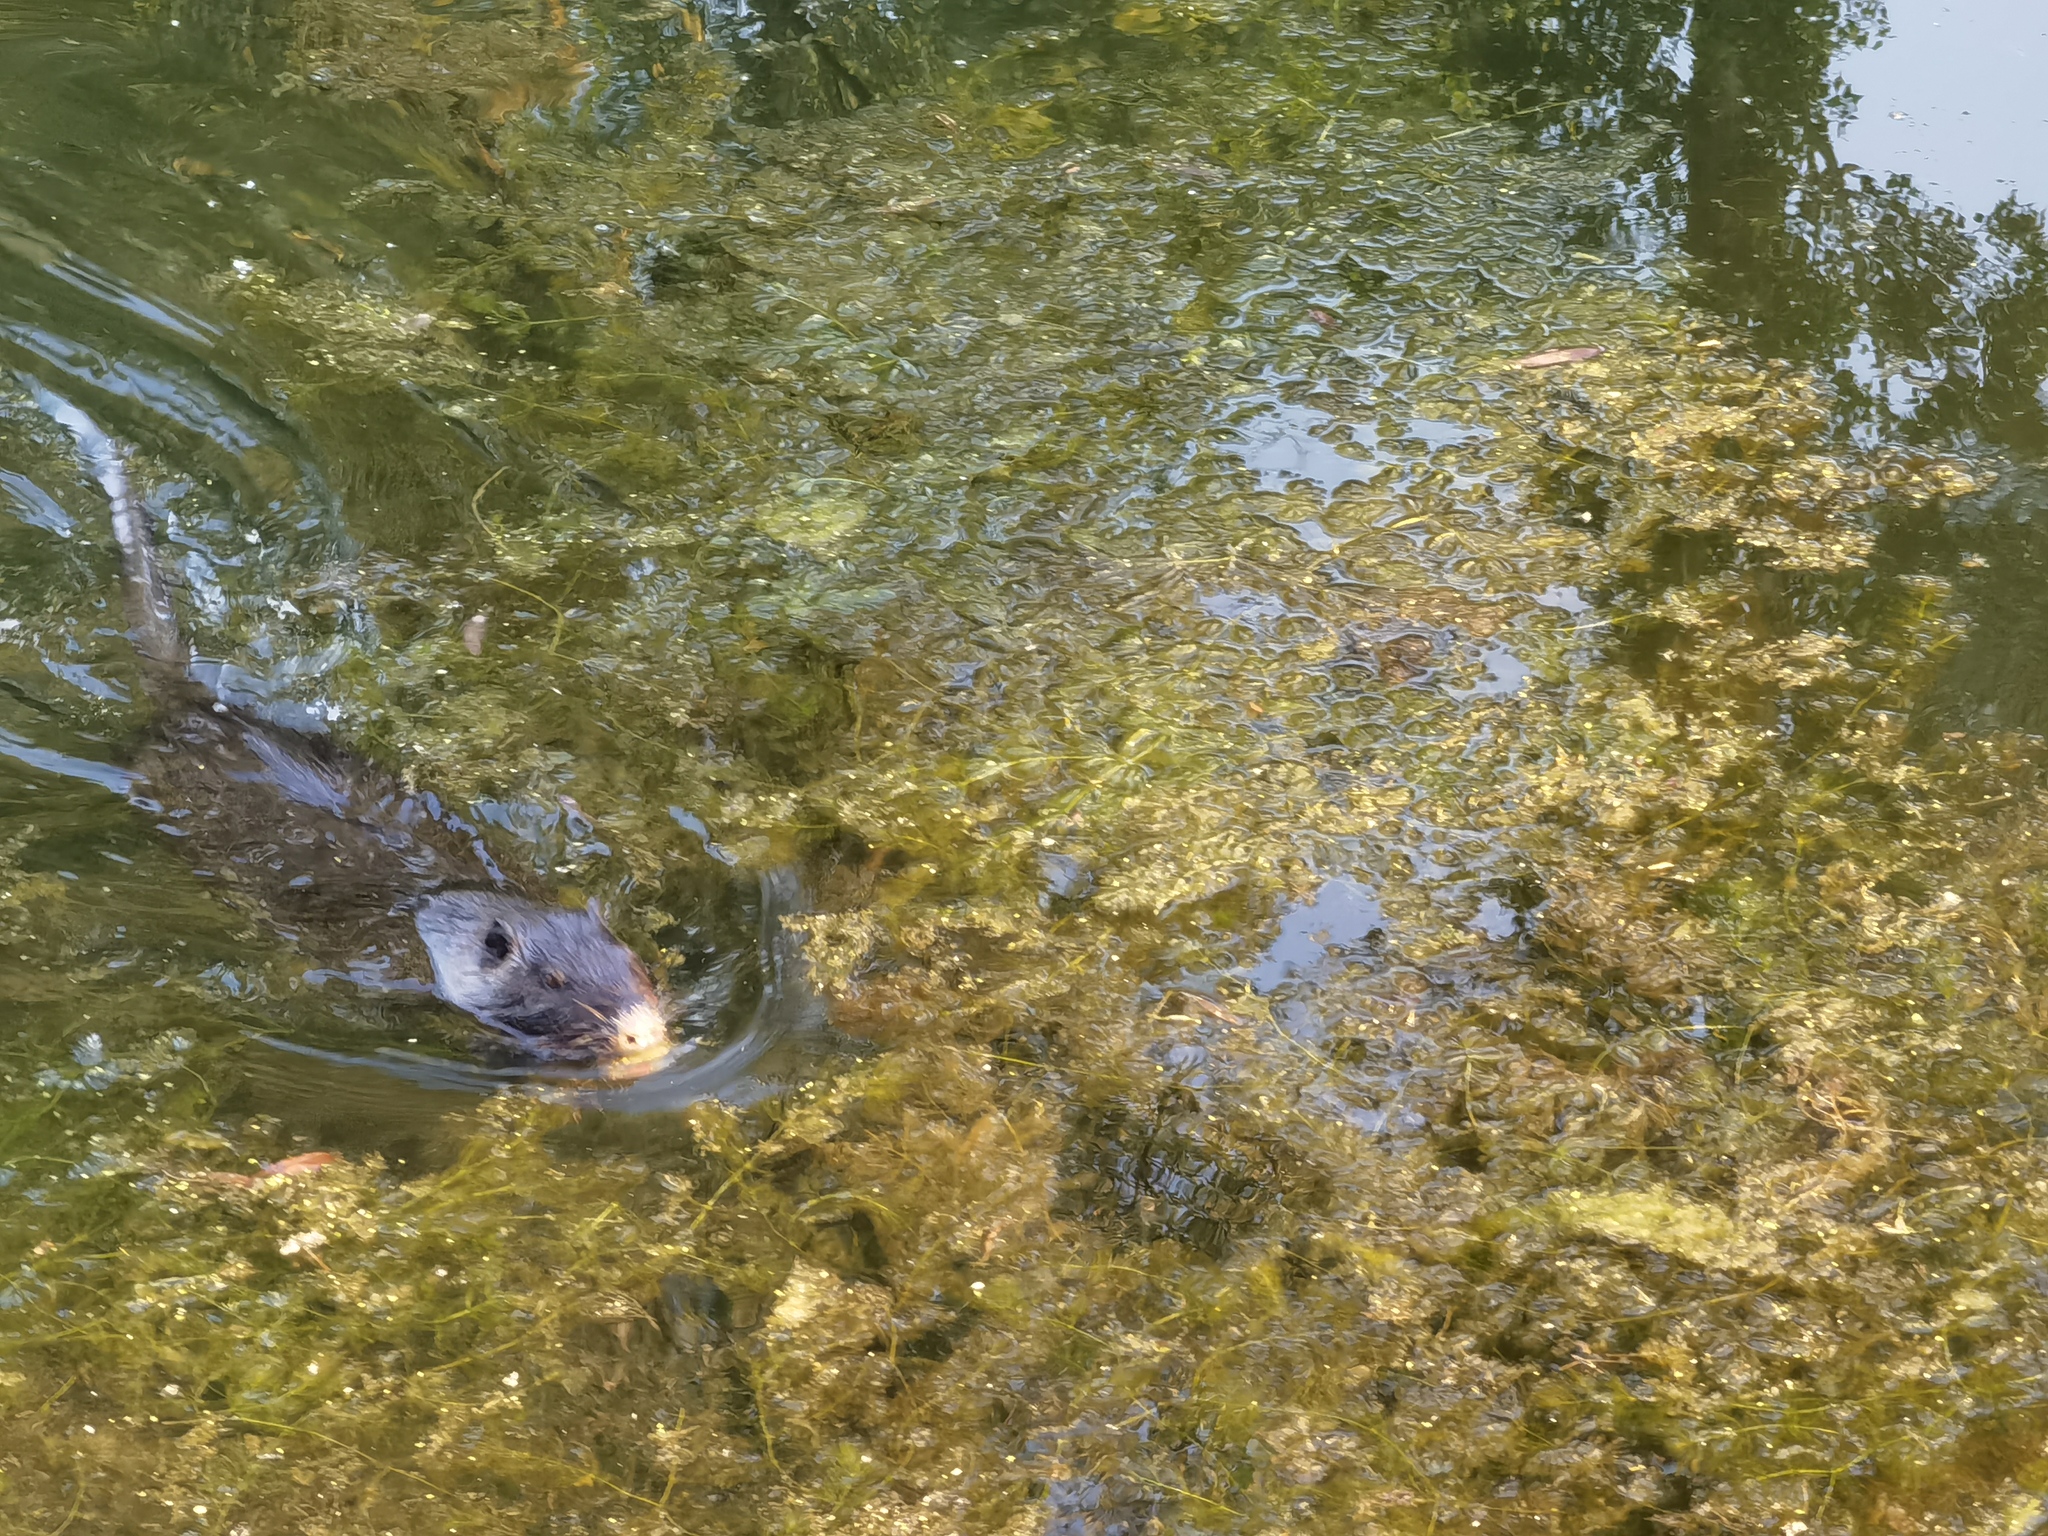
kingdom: Animalia
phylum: Chordata
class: Mammalia
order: Rodentia
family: Myocastoridae
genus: Myocastor
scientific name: Myocastor coypus
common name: Coypu
